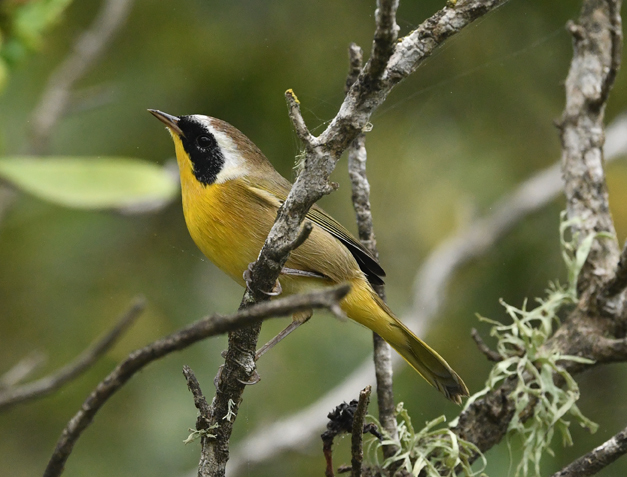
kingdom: Animalia
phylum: Chordata
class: Aves
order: Passeriformes
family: Parulidae
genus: Geothlypis
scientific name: Geothlypis trichas
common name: Common yellowthroat
